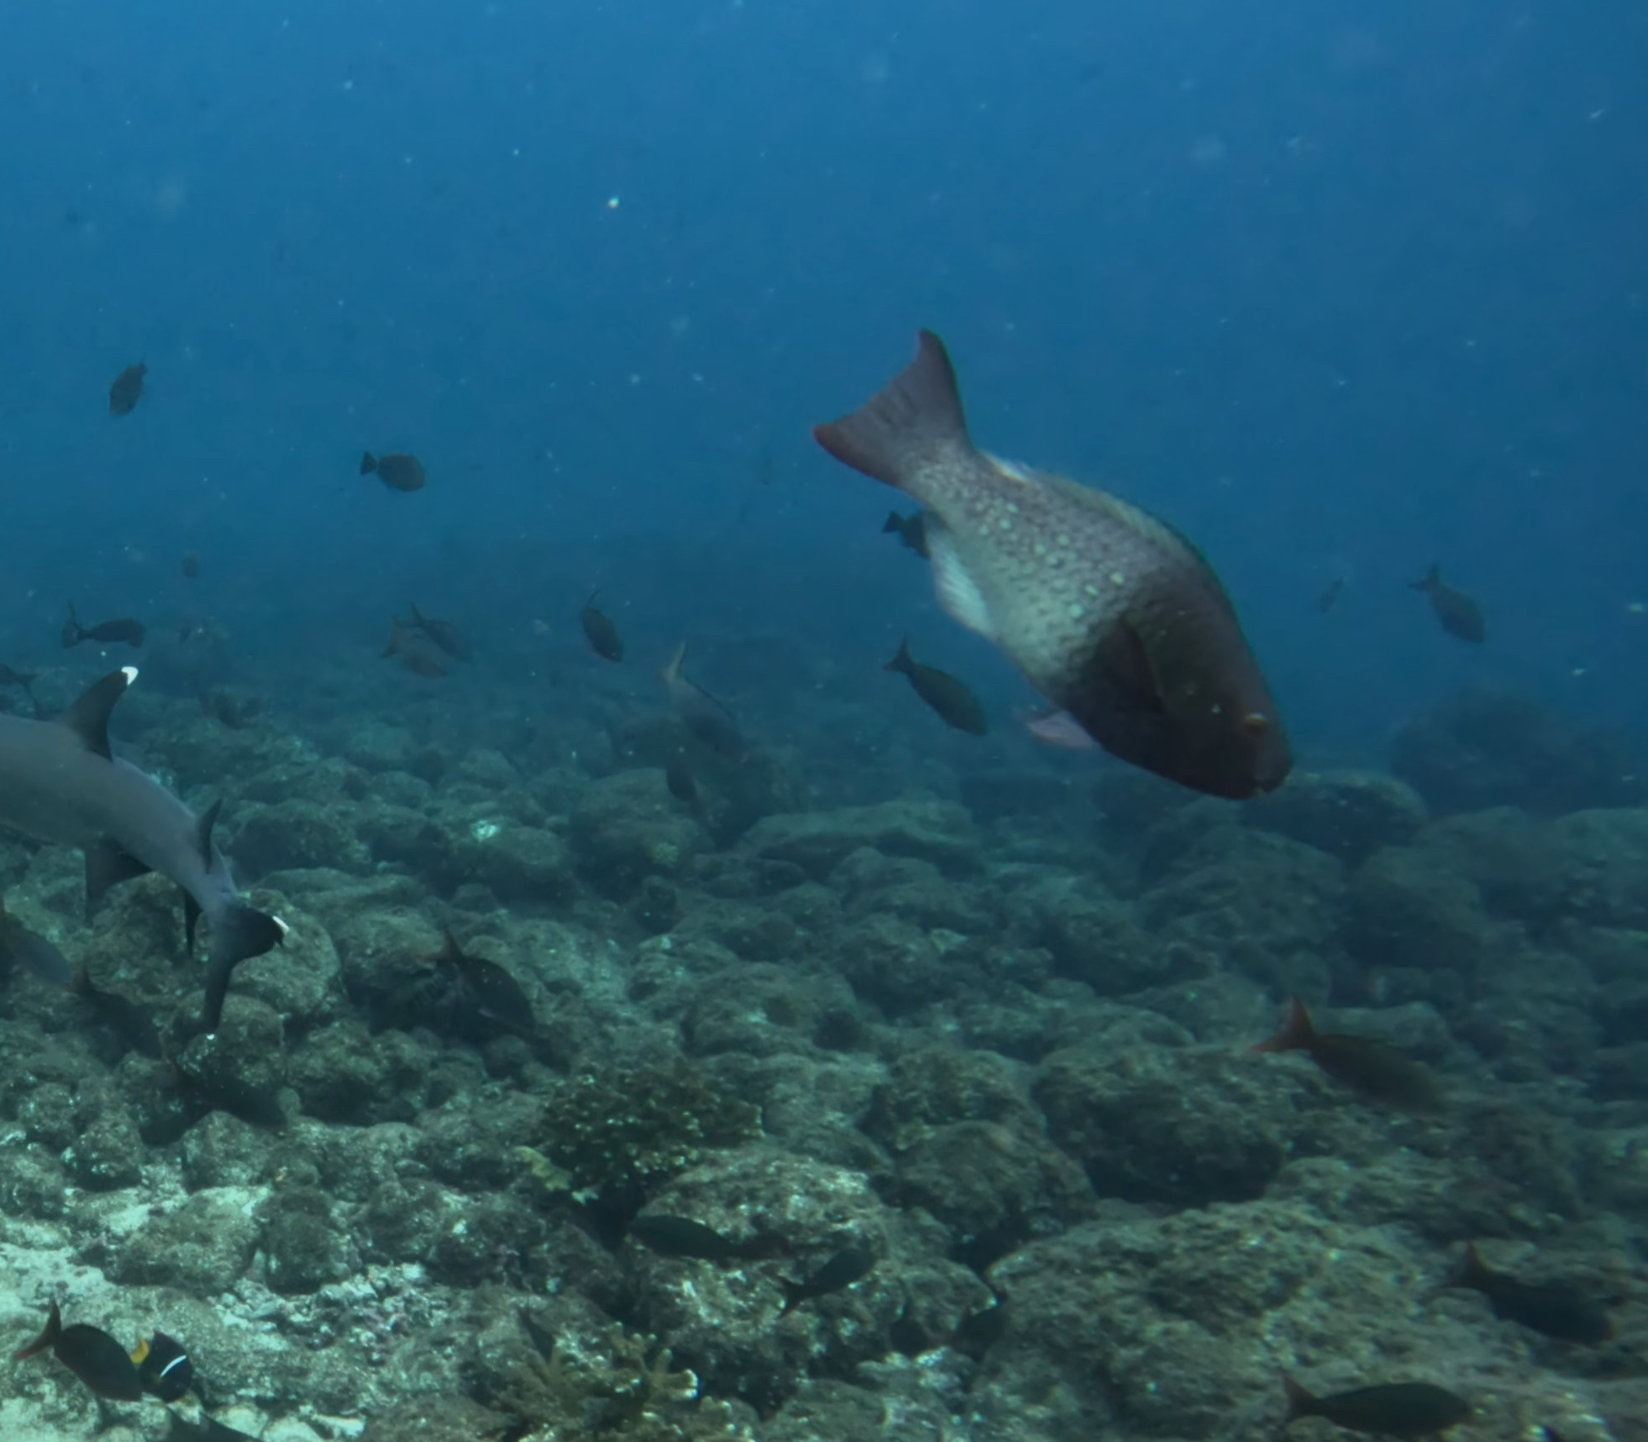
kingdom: Animalia
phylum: Chordata
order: Perciformes
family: Scaridae
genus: Scarus
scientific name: Scarus rubroviolaceus
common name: Ember parrotfish
